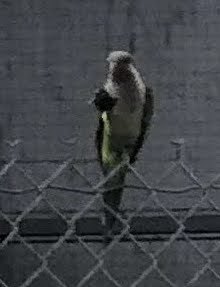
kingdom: Animalia
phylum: Chordata
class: Aves
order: Psittaciformes
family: Psittacidae
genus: Myiopsitta
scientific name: Myiopsitta monachus
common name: Monk parakeet
